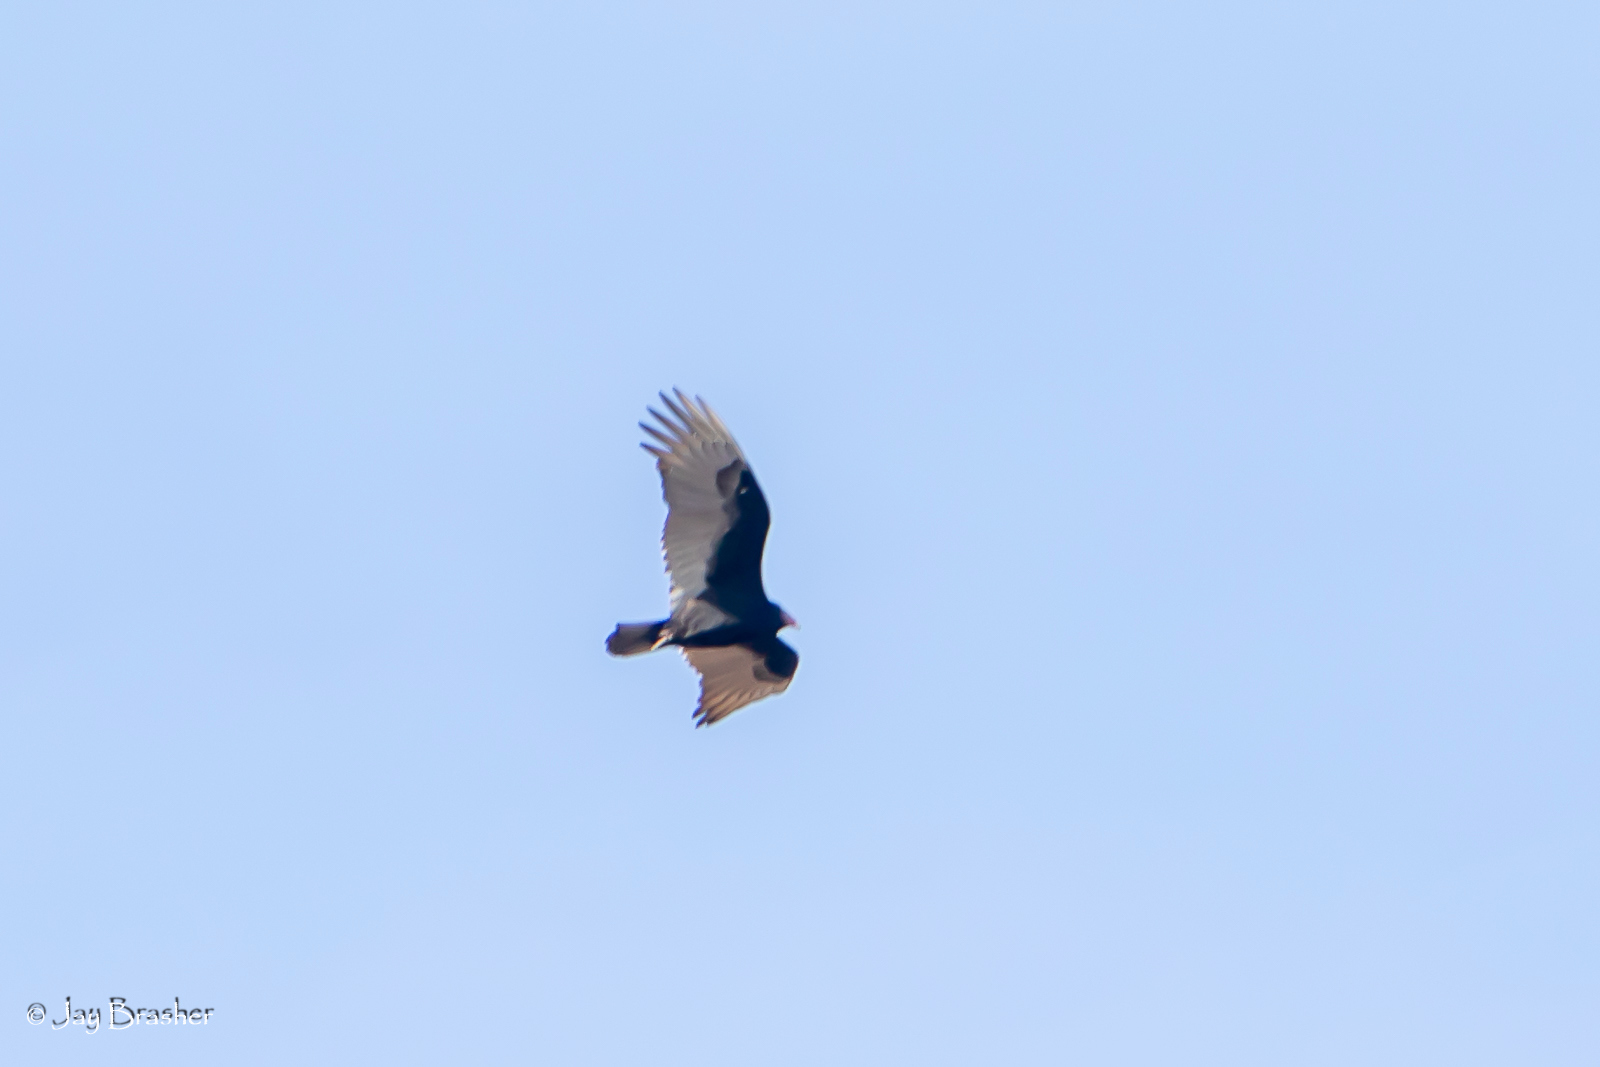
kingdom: Animalia
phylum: Chordata
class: Aves
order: Accipitriformes
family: Cathartidae
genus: Cathartes
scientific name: Cathartes aura
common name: Turkey vulture
